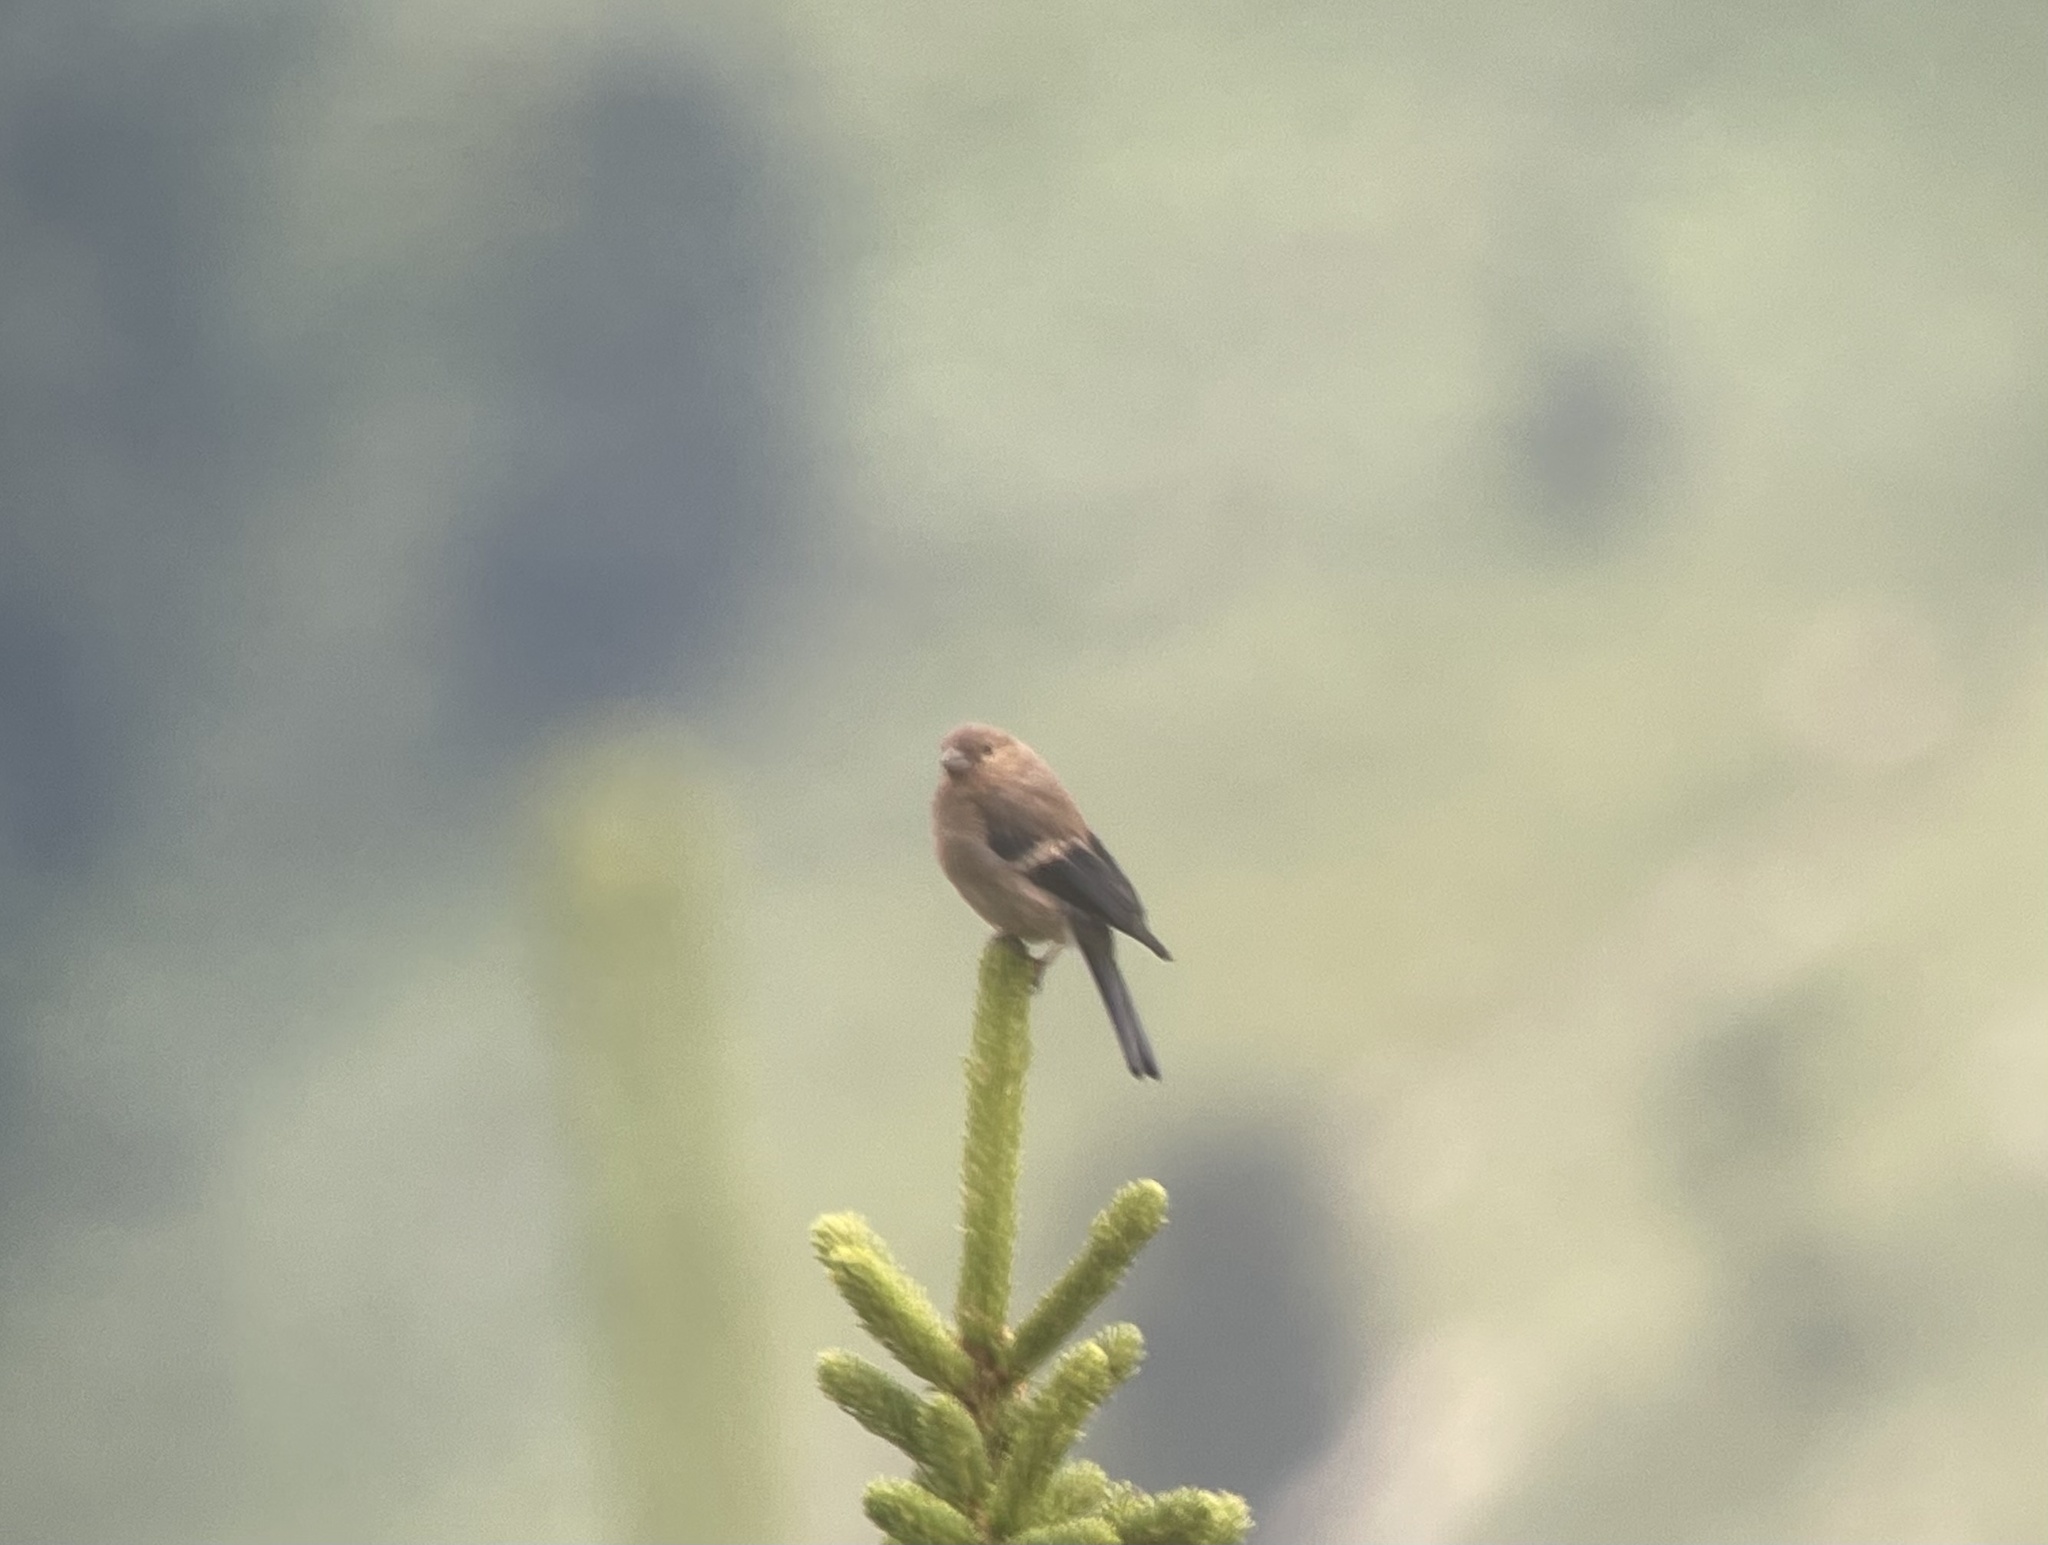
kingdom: Animalia
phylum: Chordata
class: Aves
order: Passeriformes
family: Fringillidae
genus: Pyrrhula
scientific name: Pyrrhula pyrrhula
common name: Eurasian bullfinch
